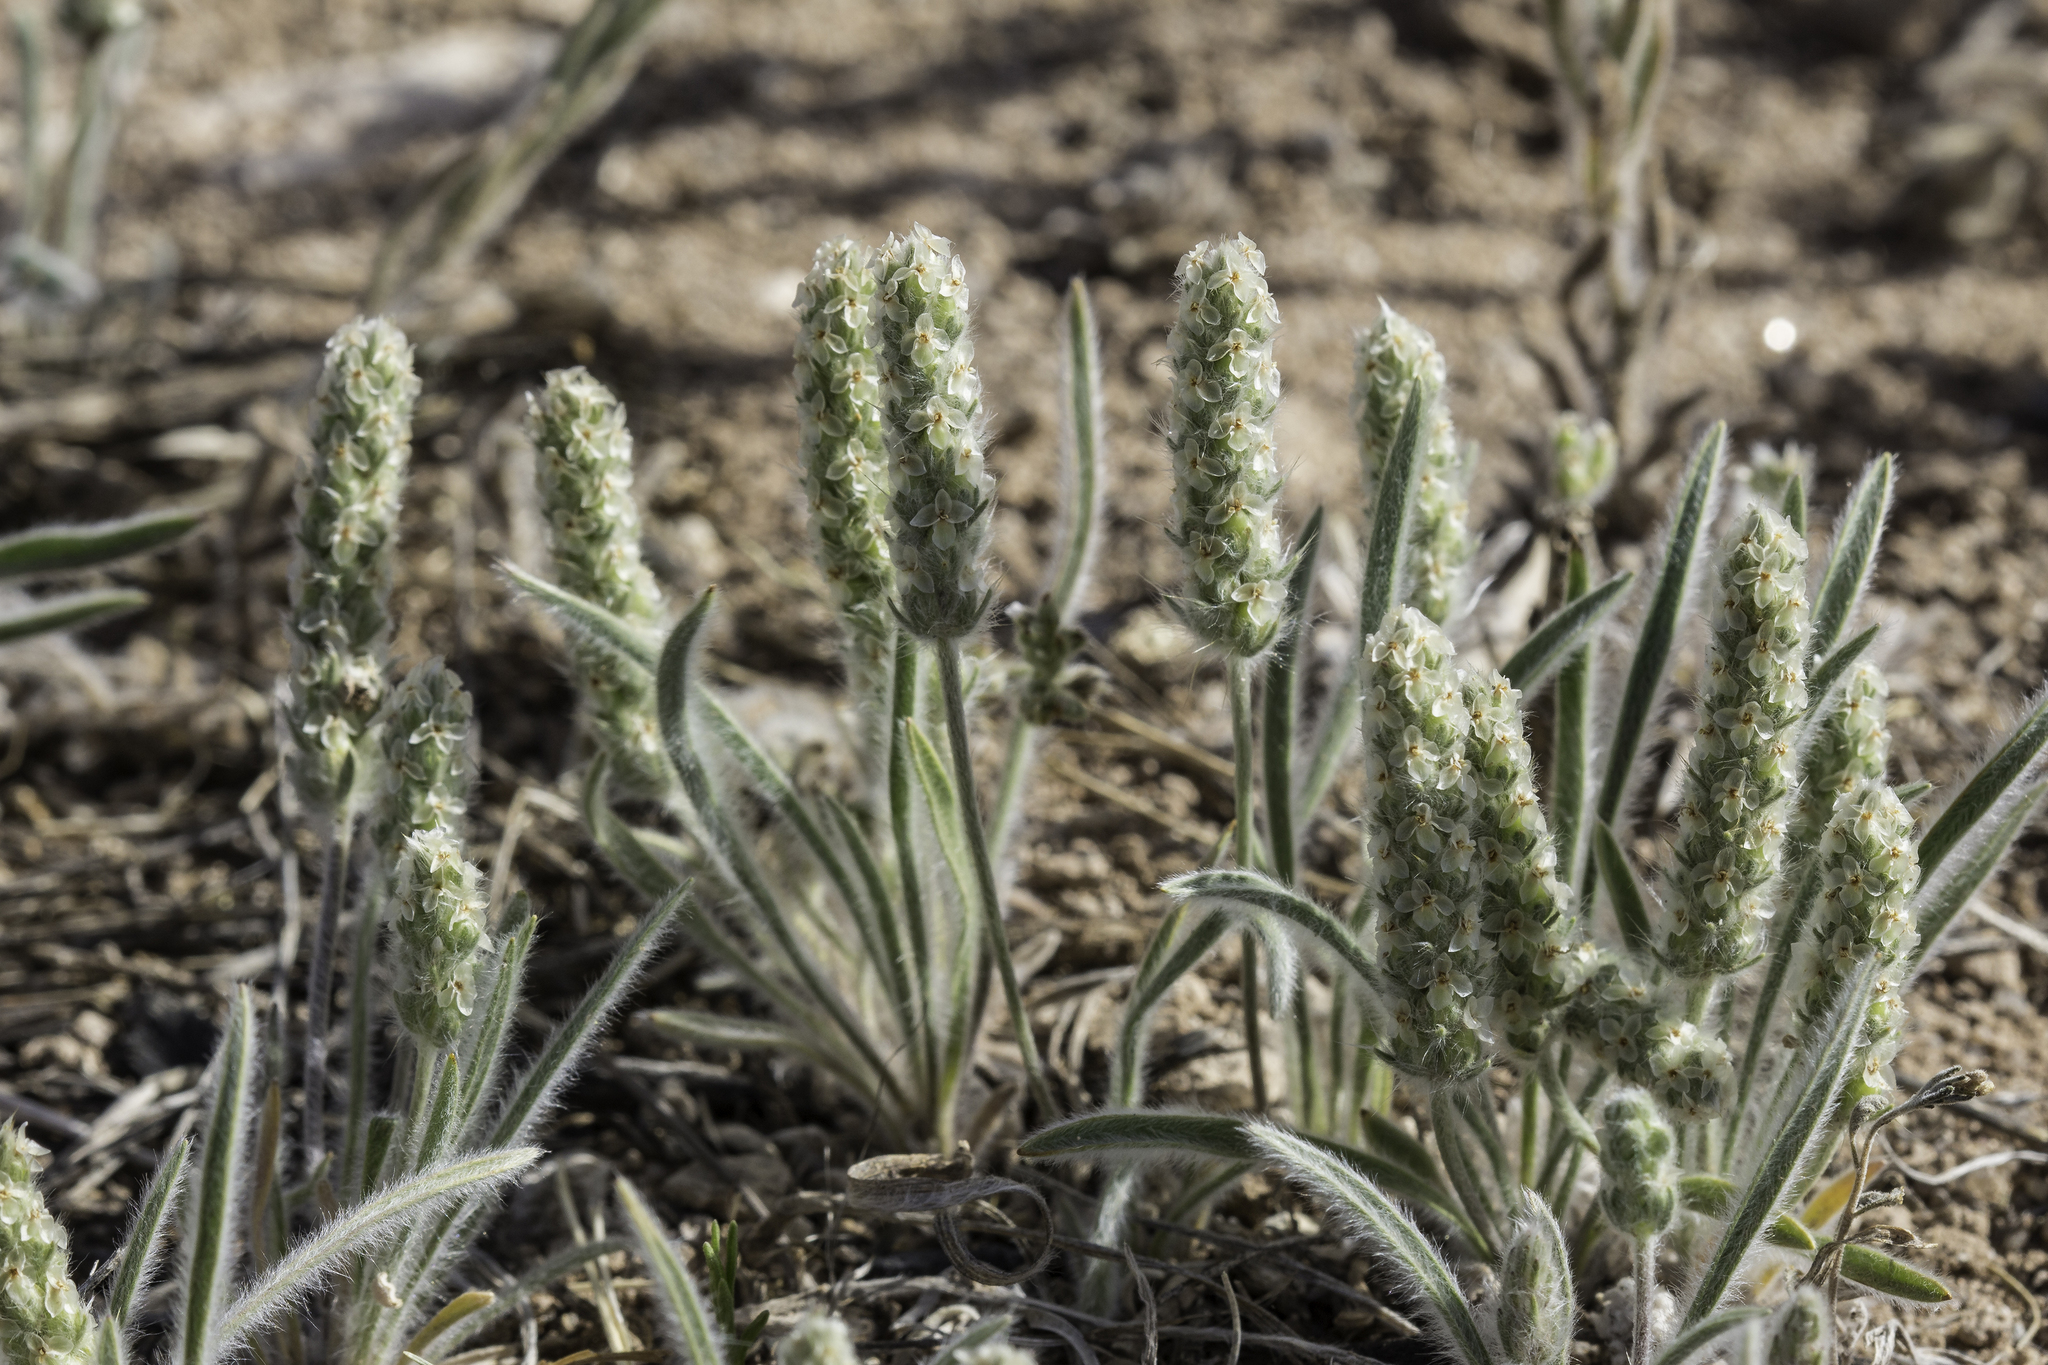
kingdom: Plantae
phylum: Tracheophyta
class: Magnoliopsida
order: Lamiales
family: Plantaginaceae
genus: Plantago
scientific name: Plantago patagonica
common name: Patagonia indian-wheat
